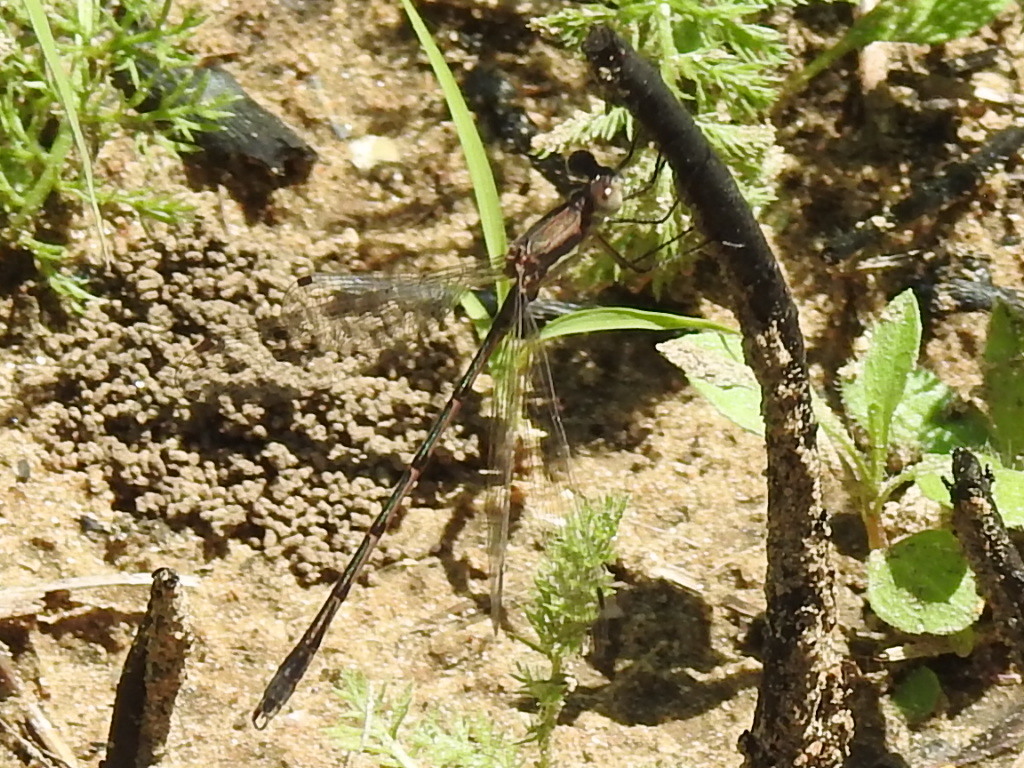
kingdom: Animalia
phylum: Arthropoda
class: Insecta
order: Odonata
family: Lestidae
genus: Lestes
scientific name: Lestes australis
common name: Southern spreadwing
